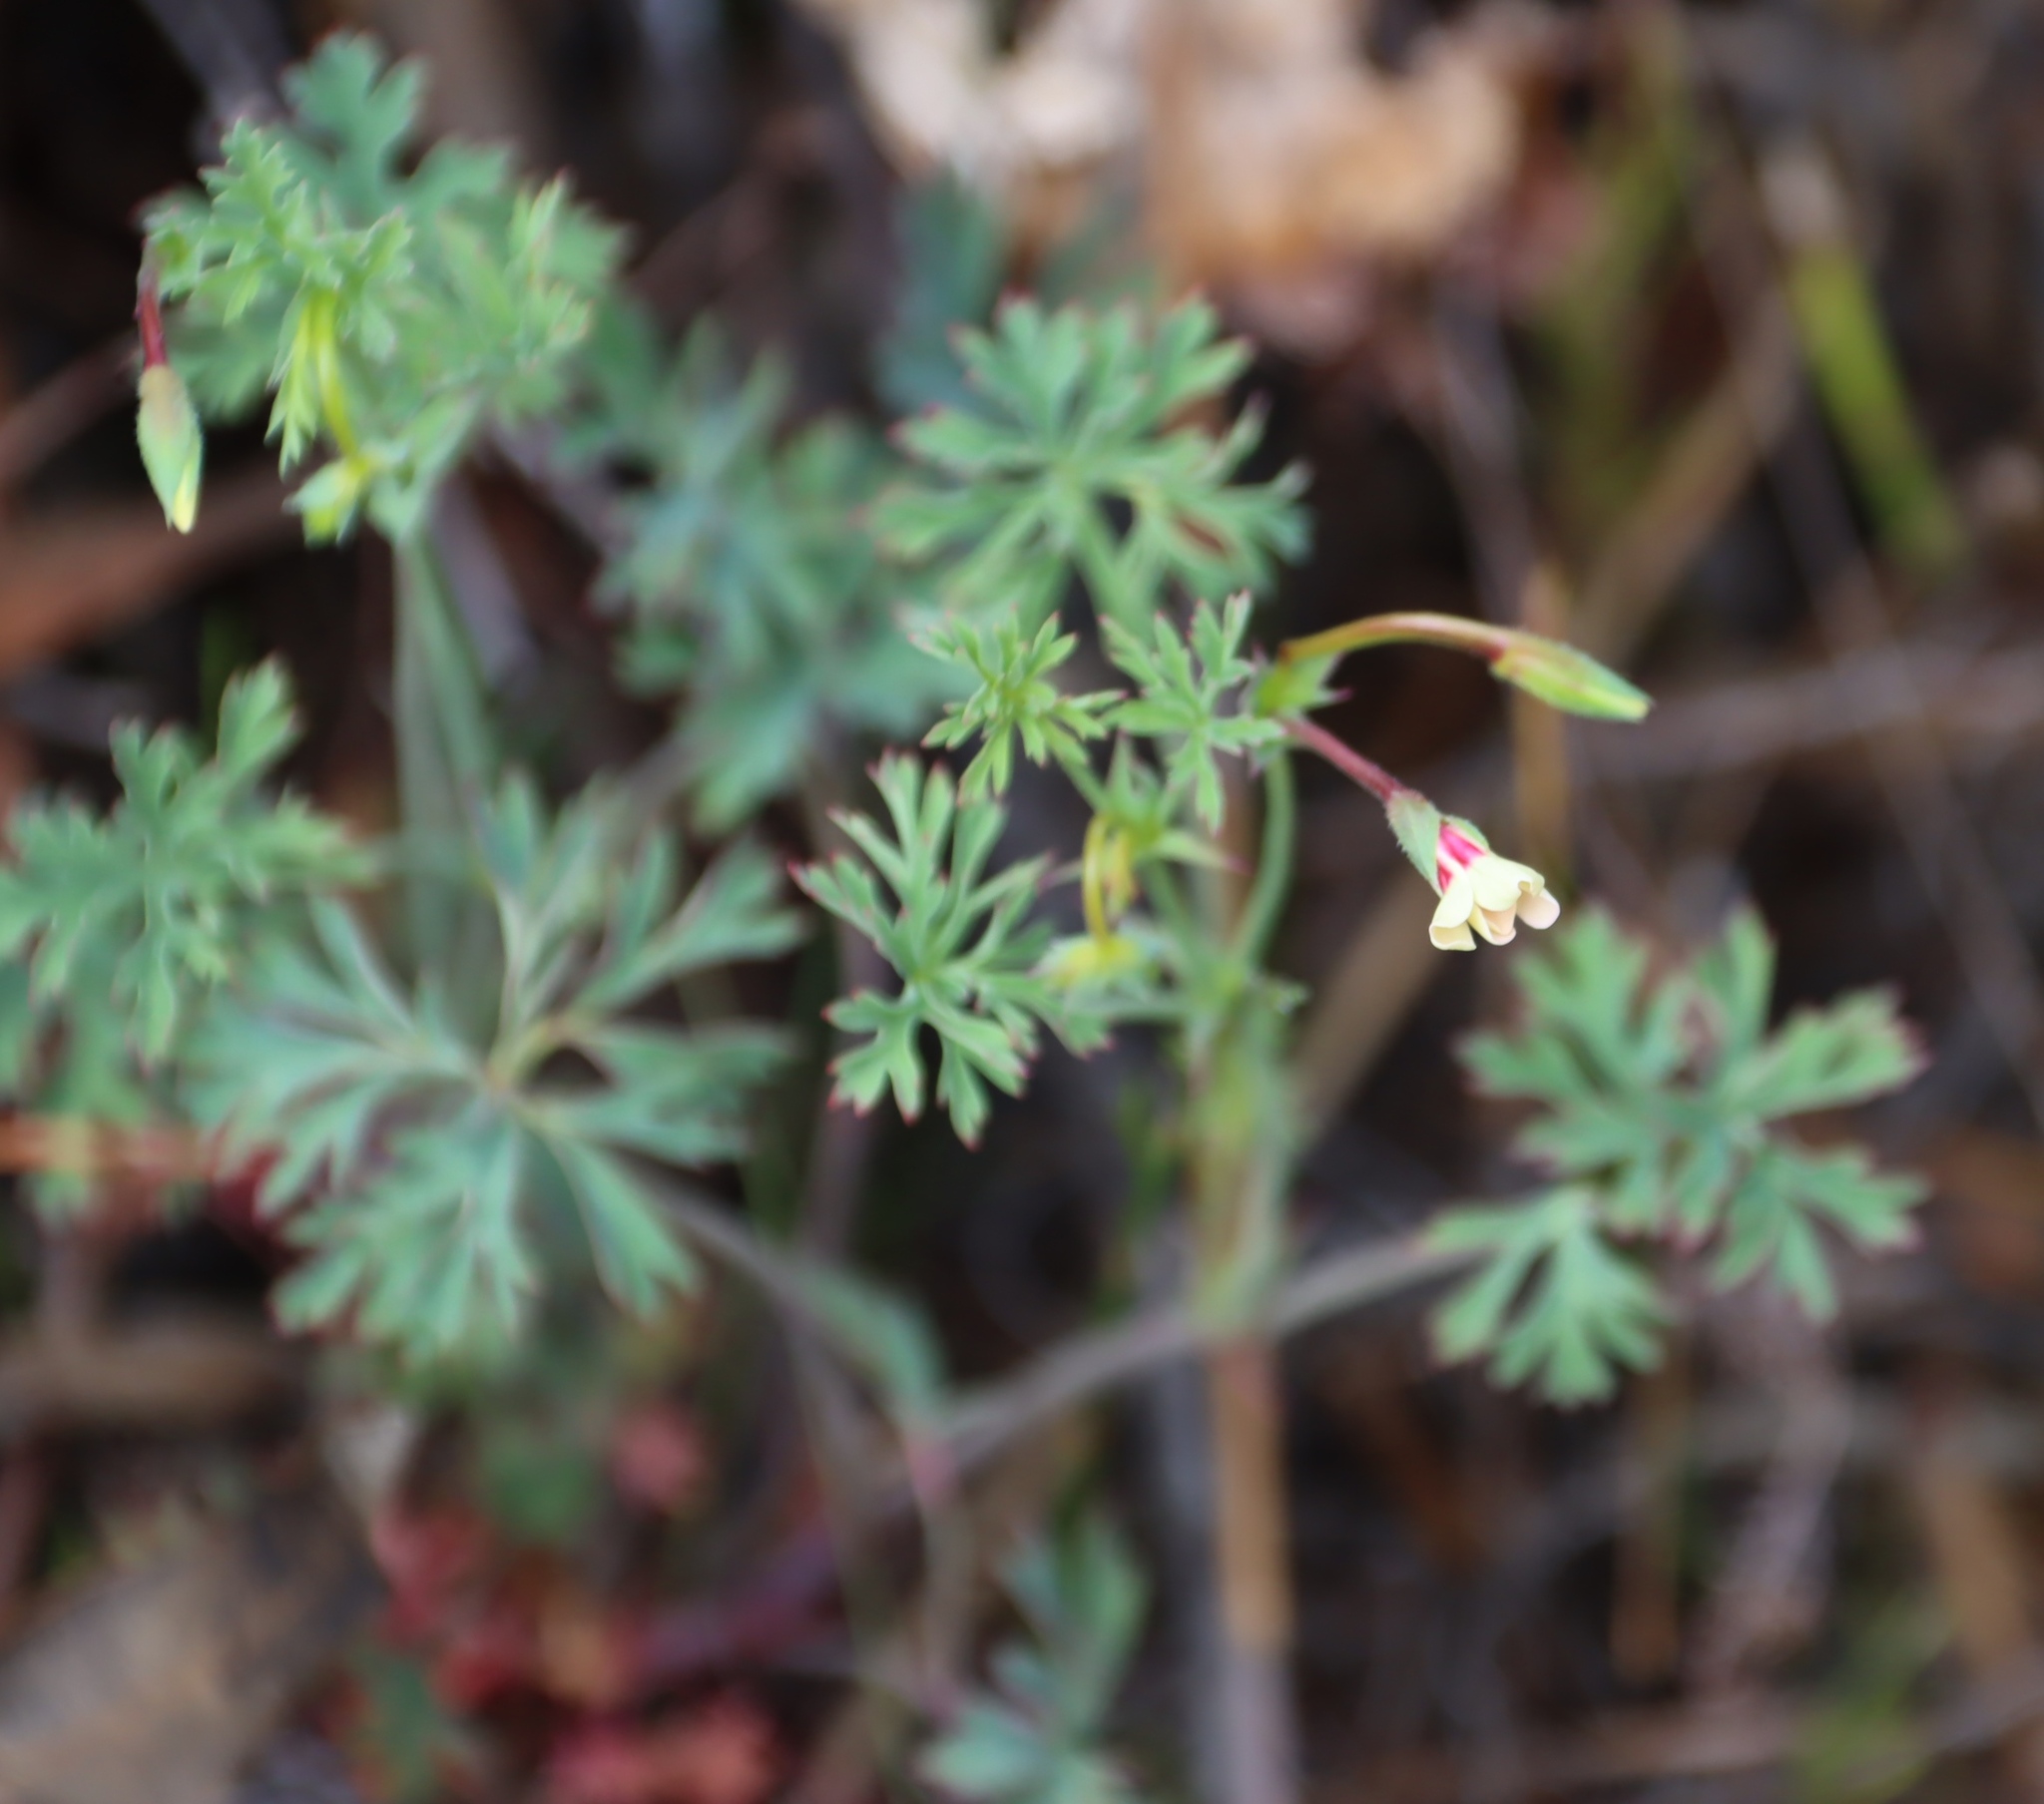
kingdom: Plantae
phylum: Tracheophyta
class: Magnoliopsida
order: Geraniales
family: Geraniaceae
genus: Pelargonium
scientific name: Pelargonium patulum
